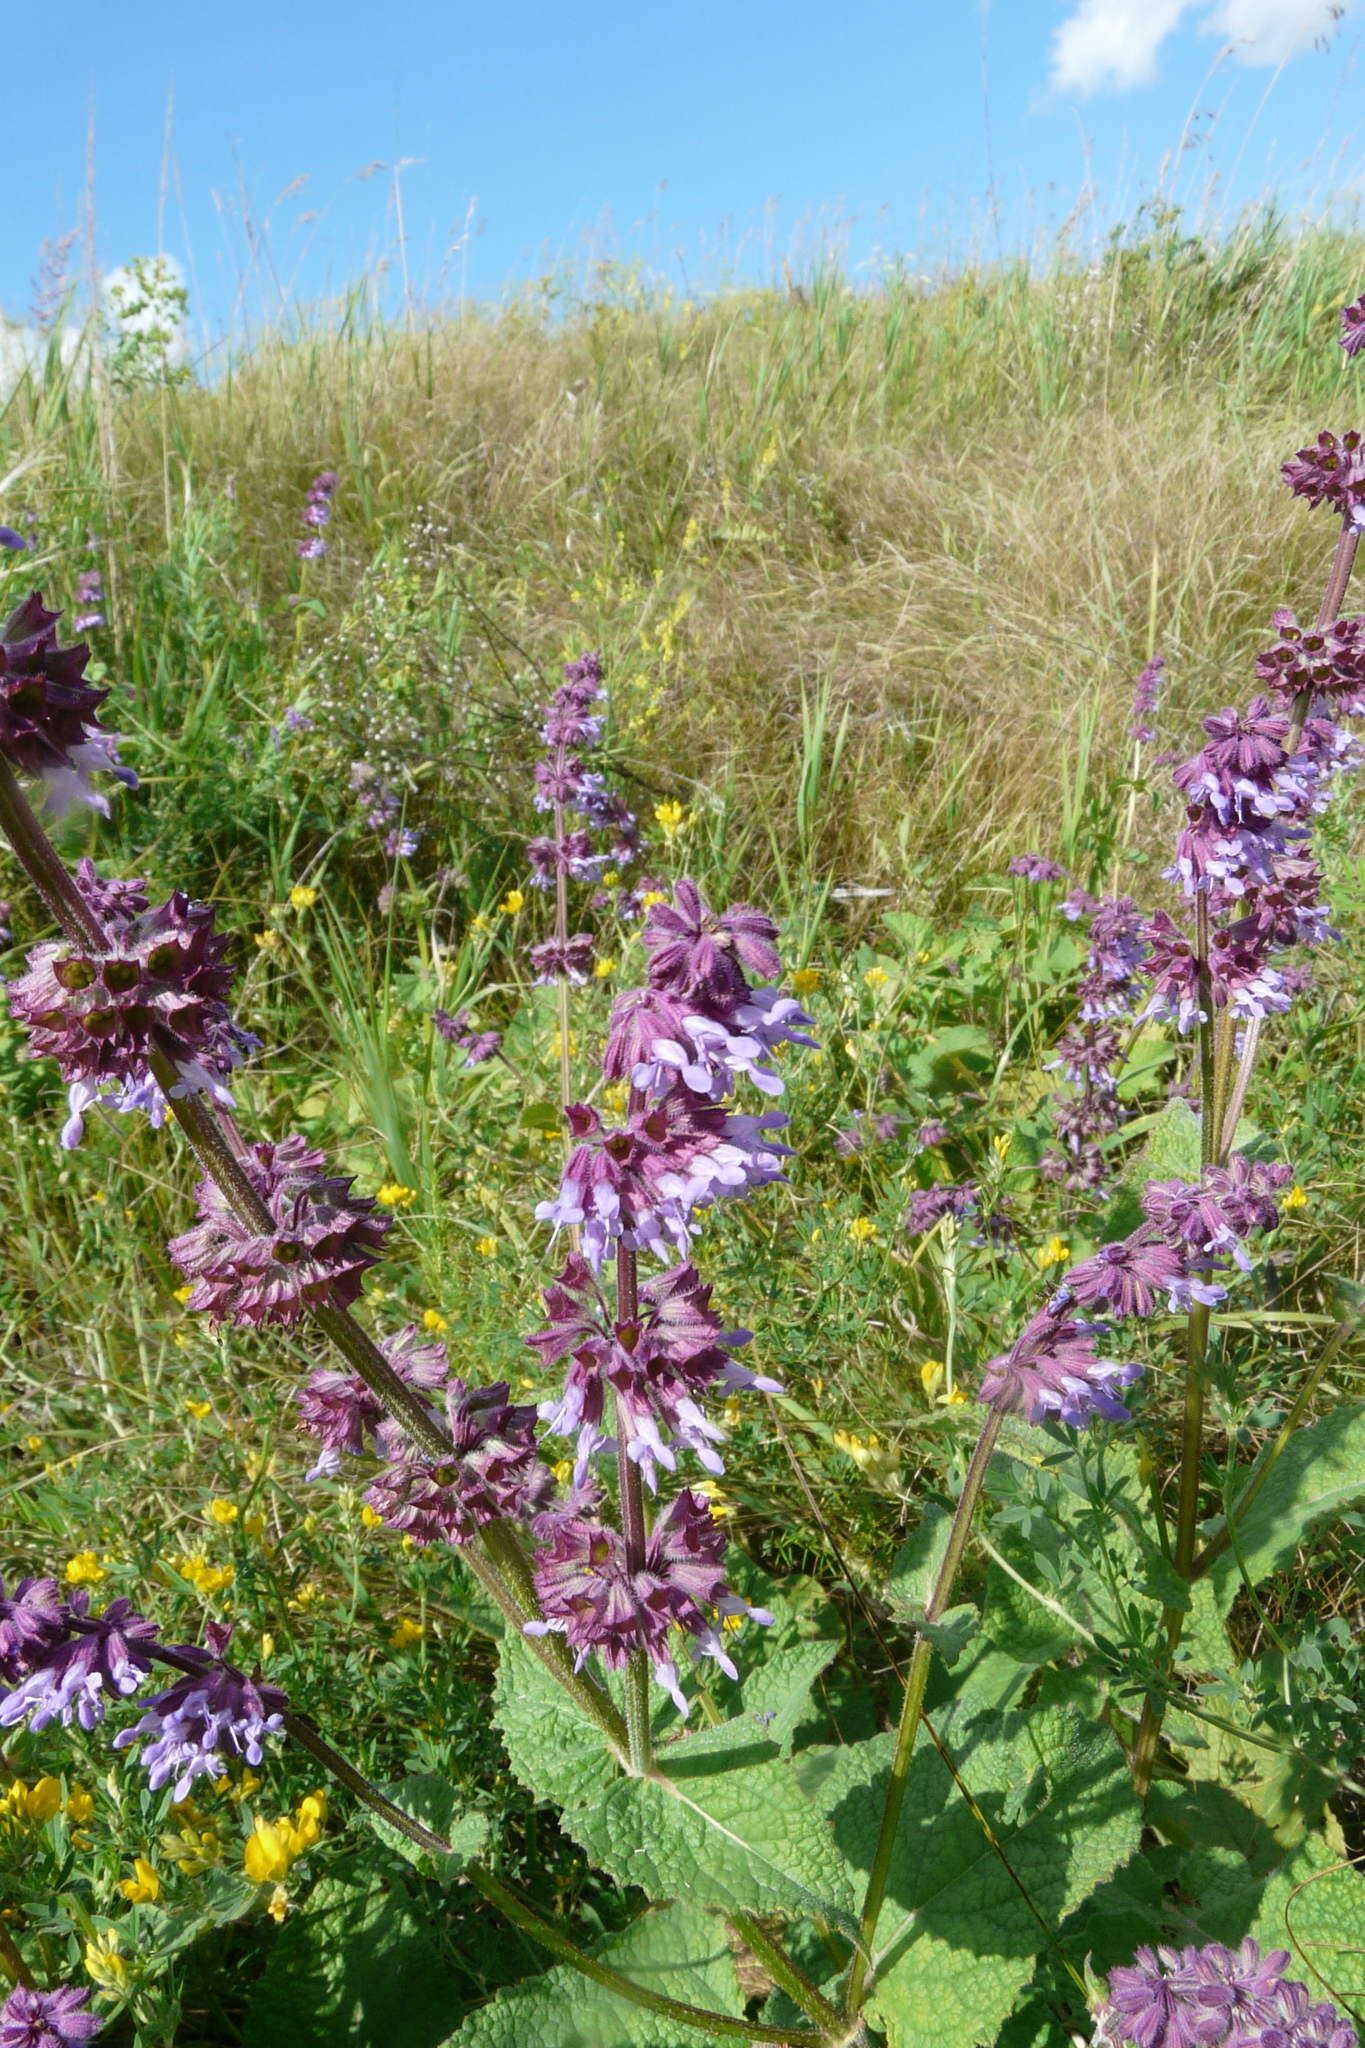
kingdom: Plantae
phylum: Tracheophyta
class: Magnoliopsida
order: Lamiales
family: Lamiaceae
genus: Salvia
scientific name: Salvia verticillata
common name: Whorled clary
